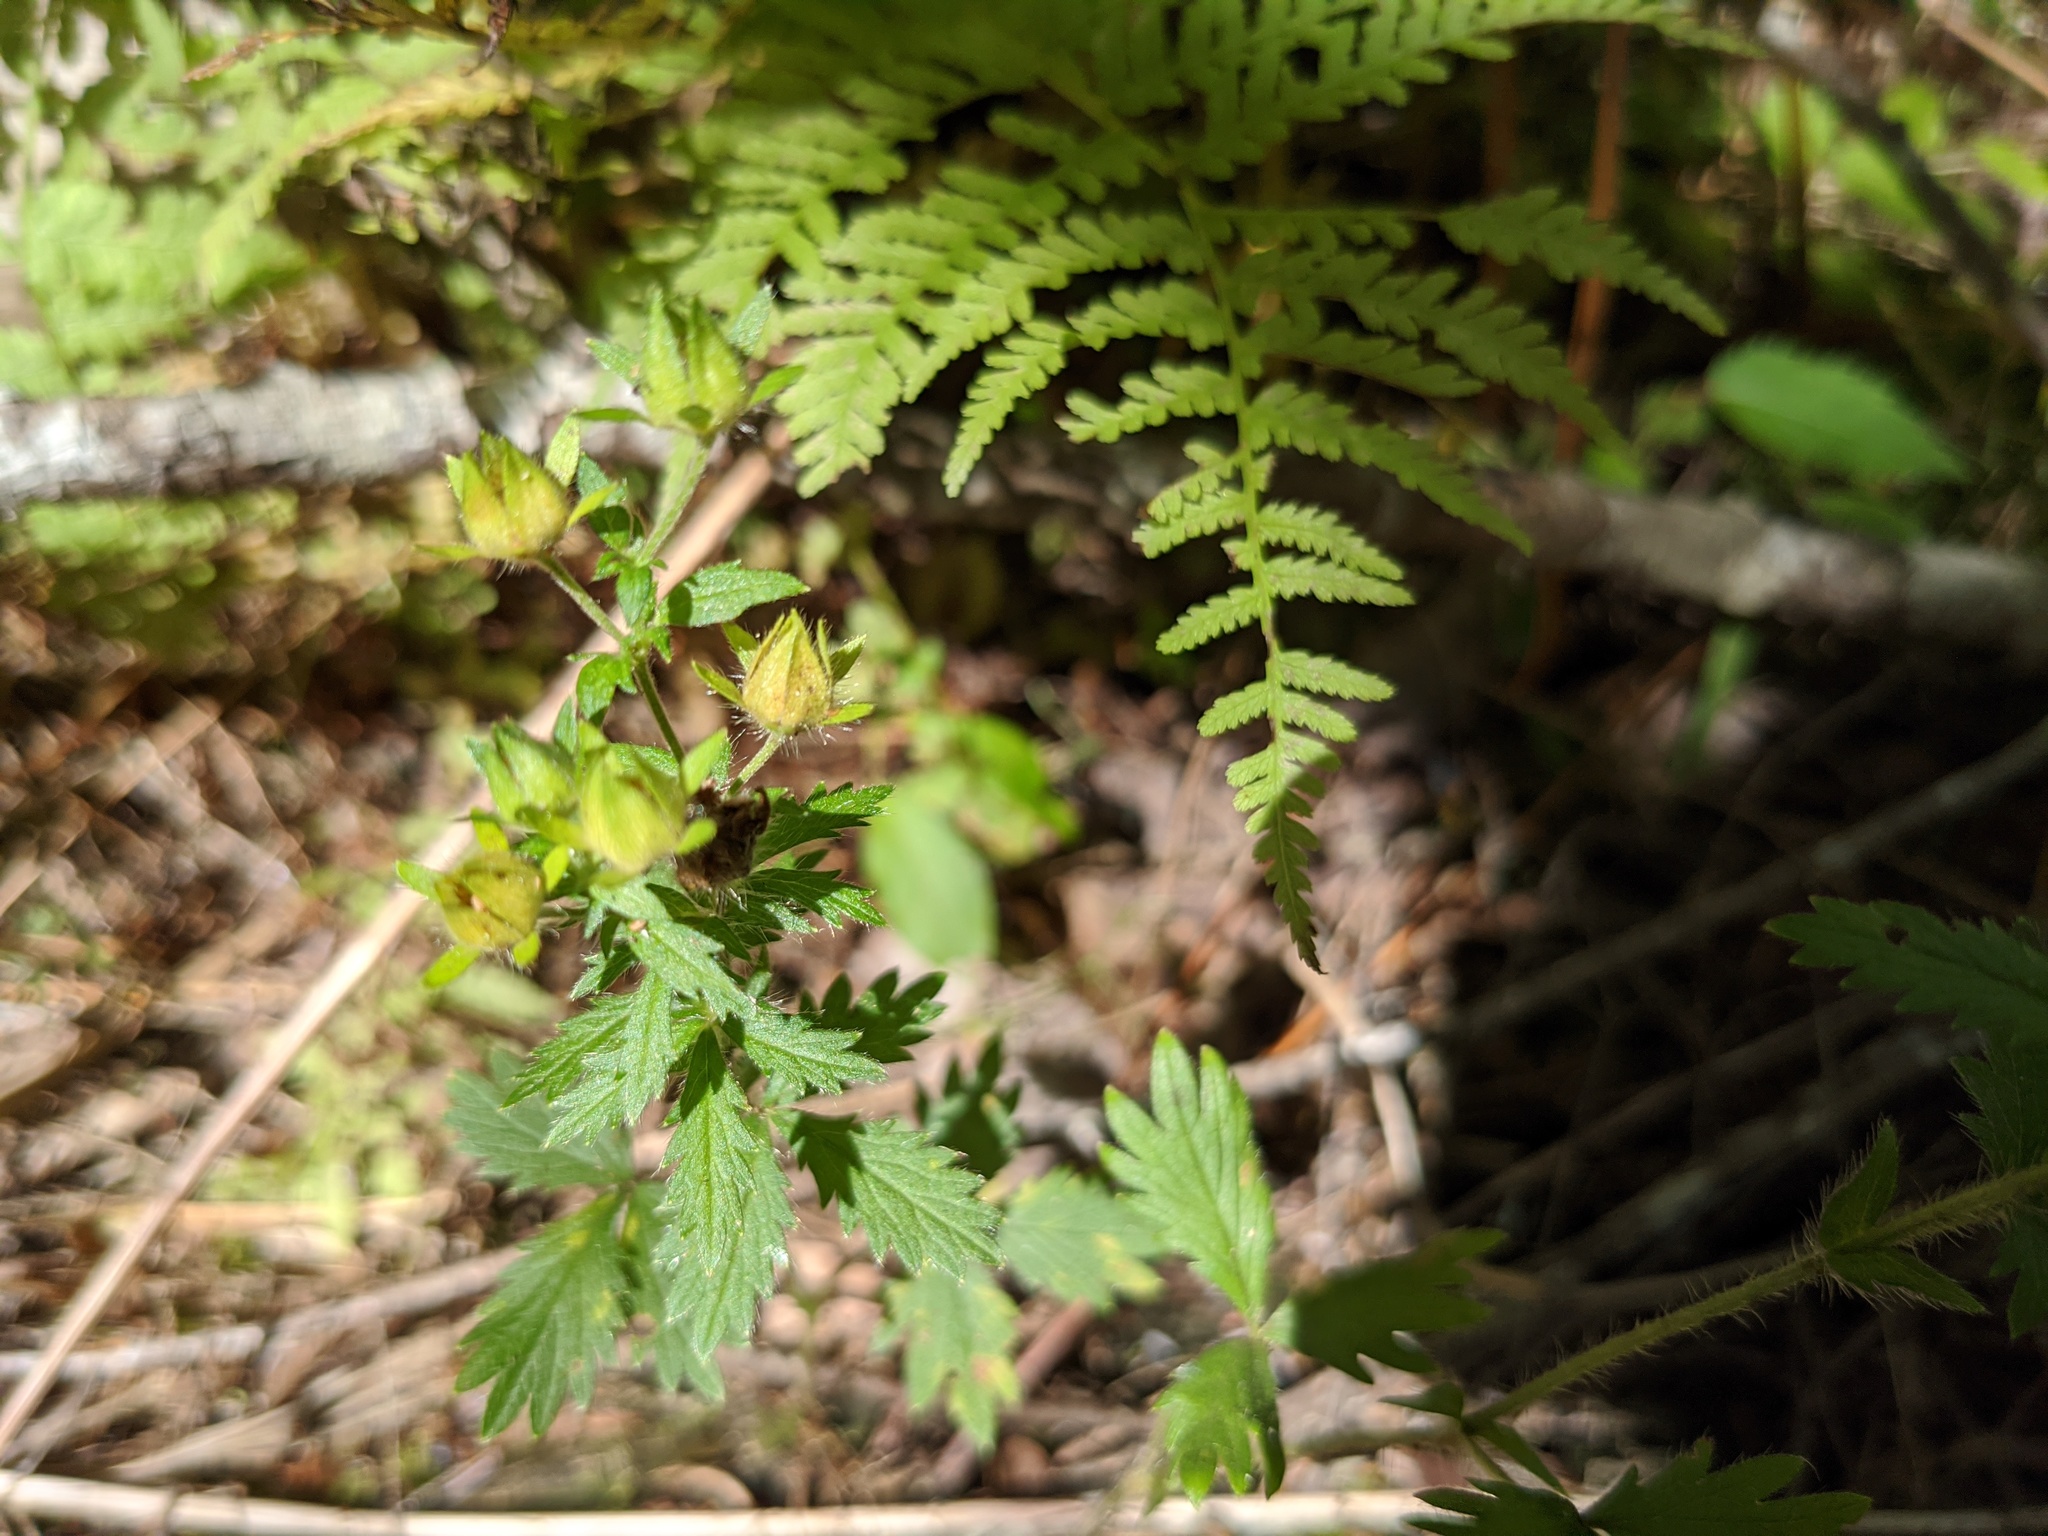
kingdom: Plantae
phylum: Tracheophyta
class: Magnoliopsida
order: Rosales
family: Rosaceae
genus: Potentilla
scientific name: Potentilla norvegica
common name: Ternate-leaved cinquefoil
